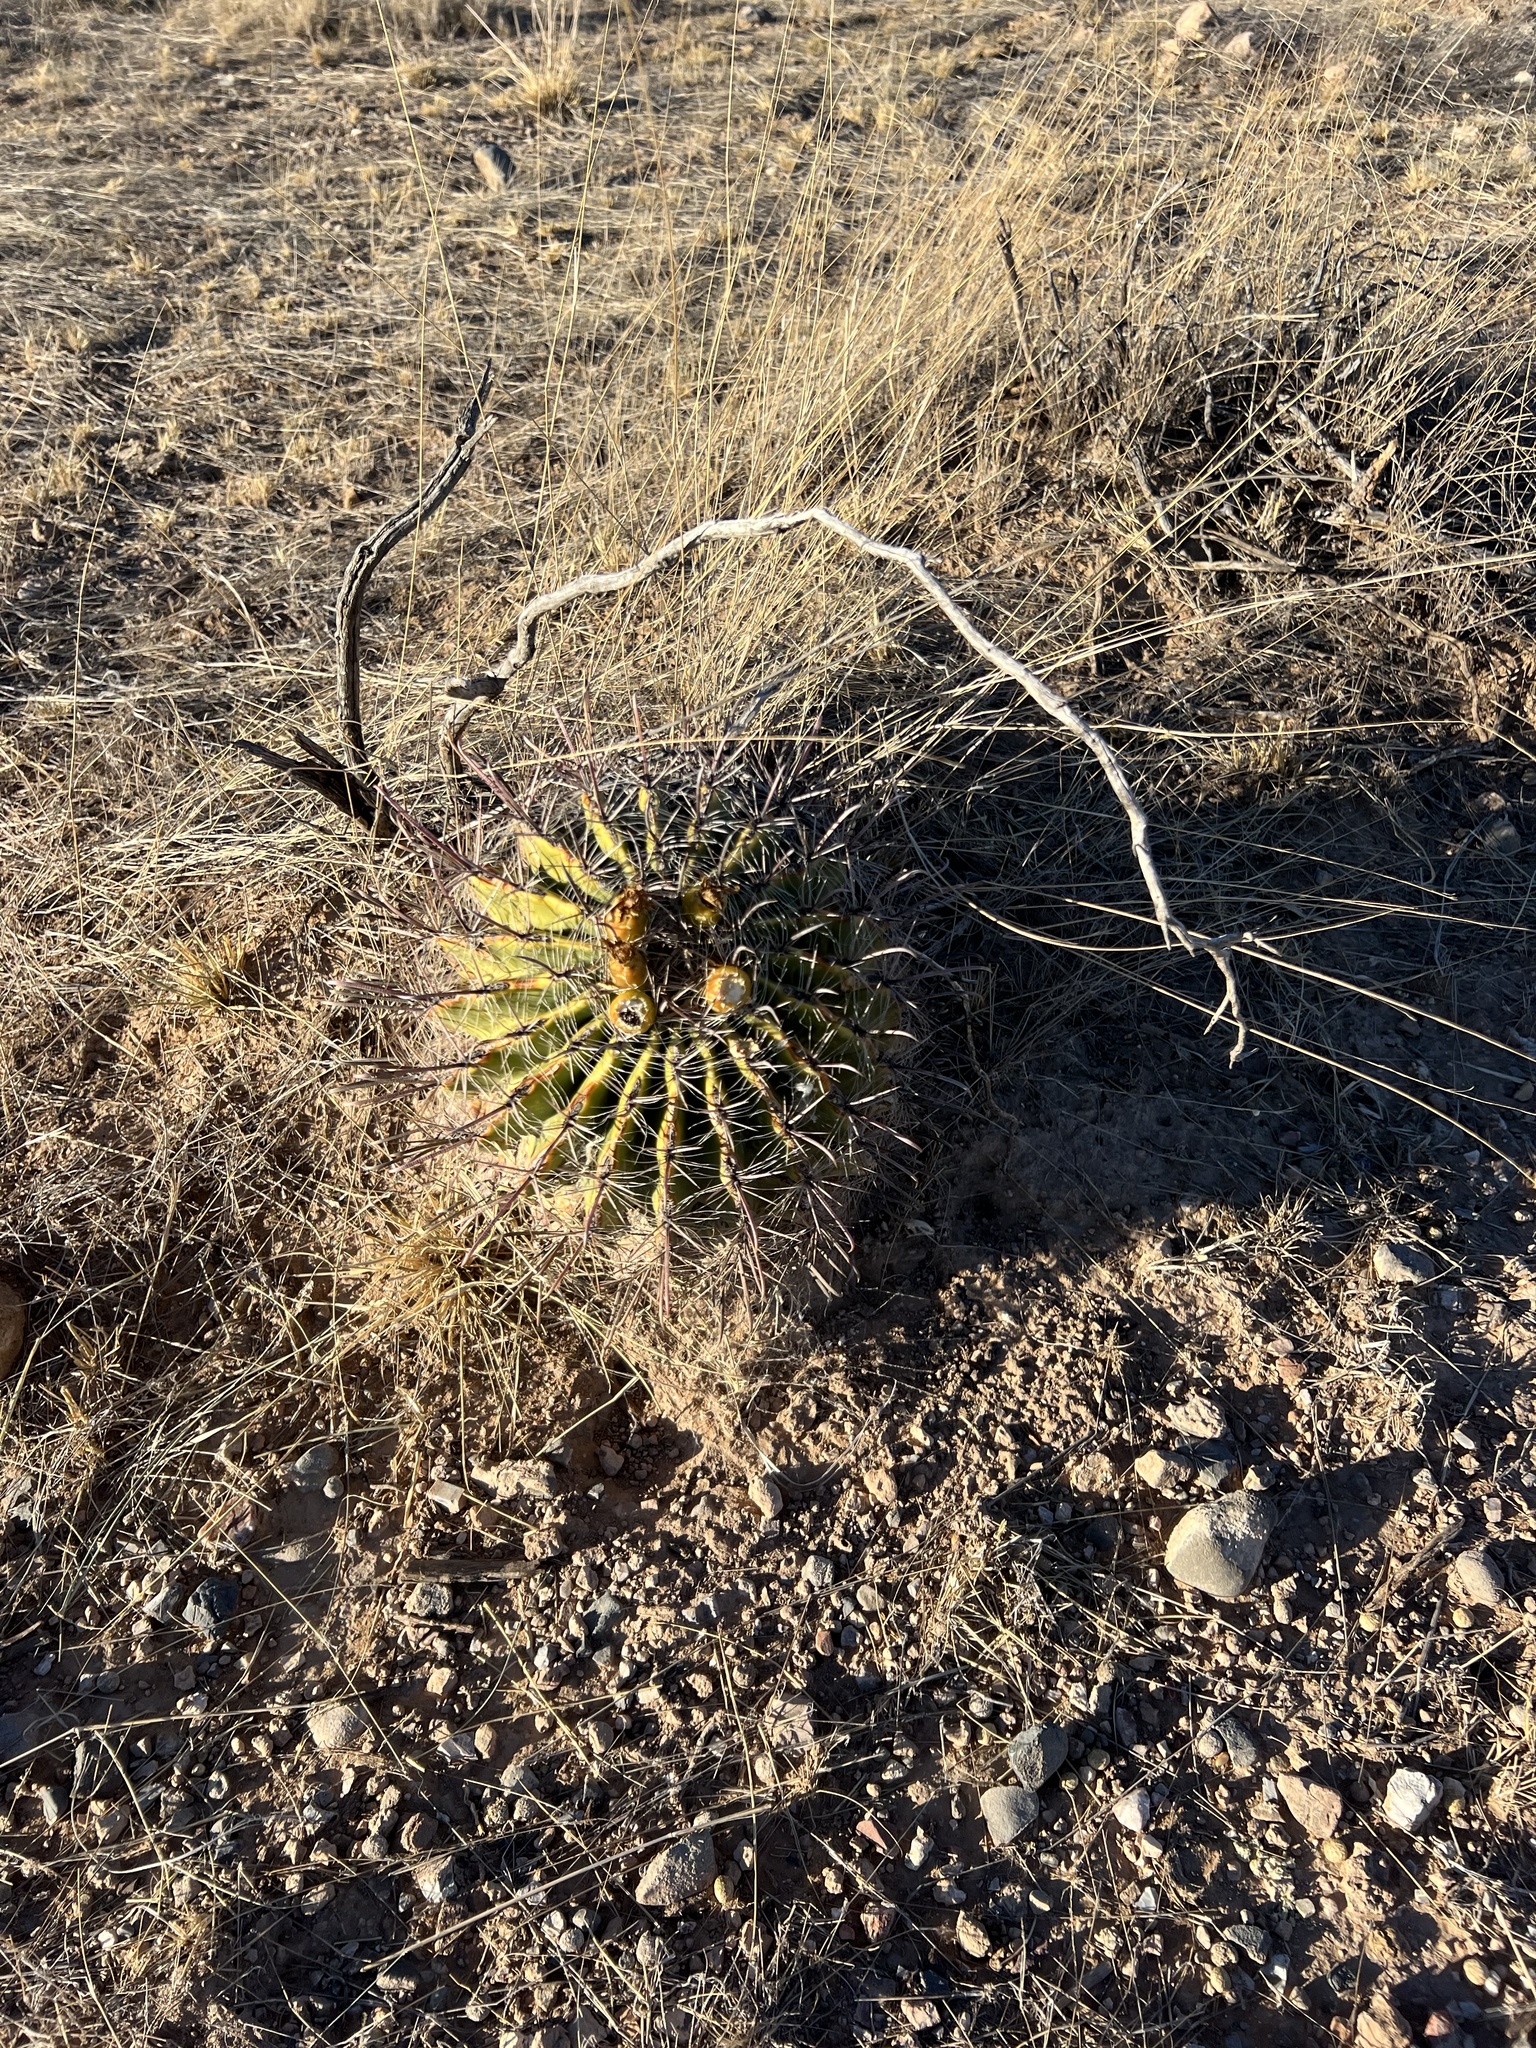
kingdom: Plantae
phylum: Tracheophyta
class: Magnoliopsida
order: Caryophyllales
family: Cactaceae
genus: Ferocactus
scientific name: Ferocactus wislizeni
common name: Candy barrel cactus
